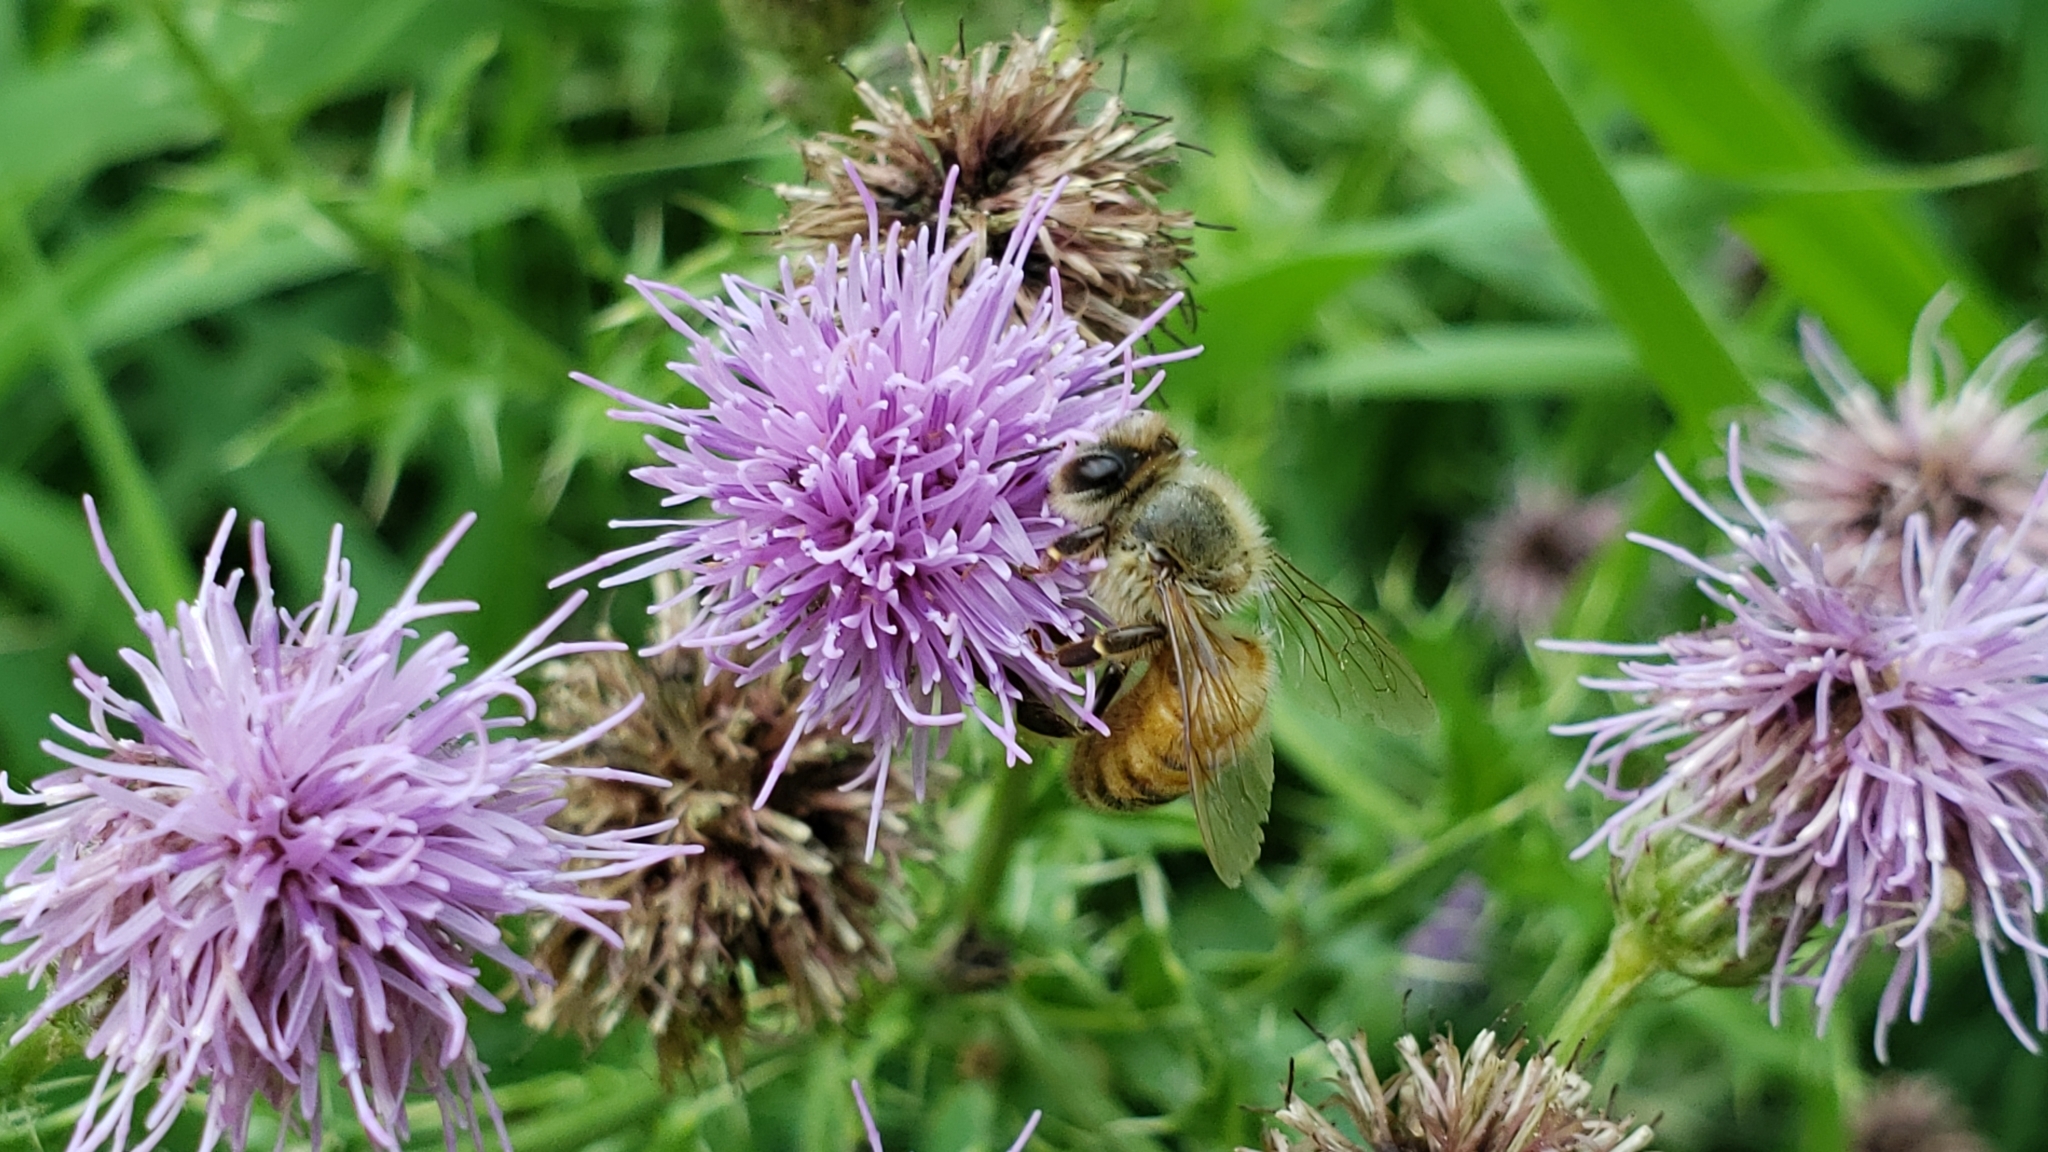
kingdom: Animalia
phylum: Arthropoda
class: Insecta
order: Hymenoptera
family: Apidae
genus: Apis
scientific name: Apis mellifera
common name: Honey bee
